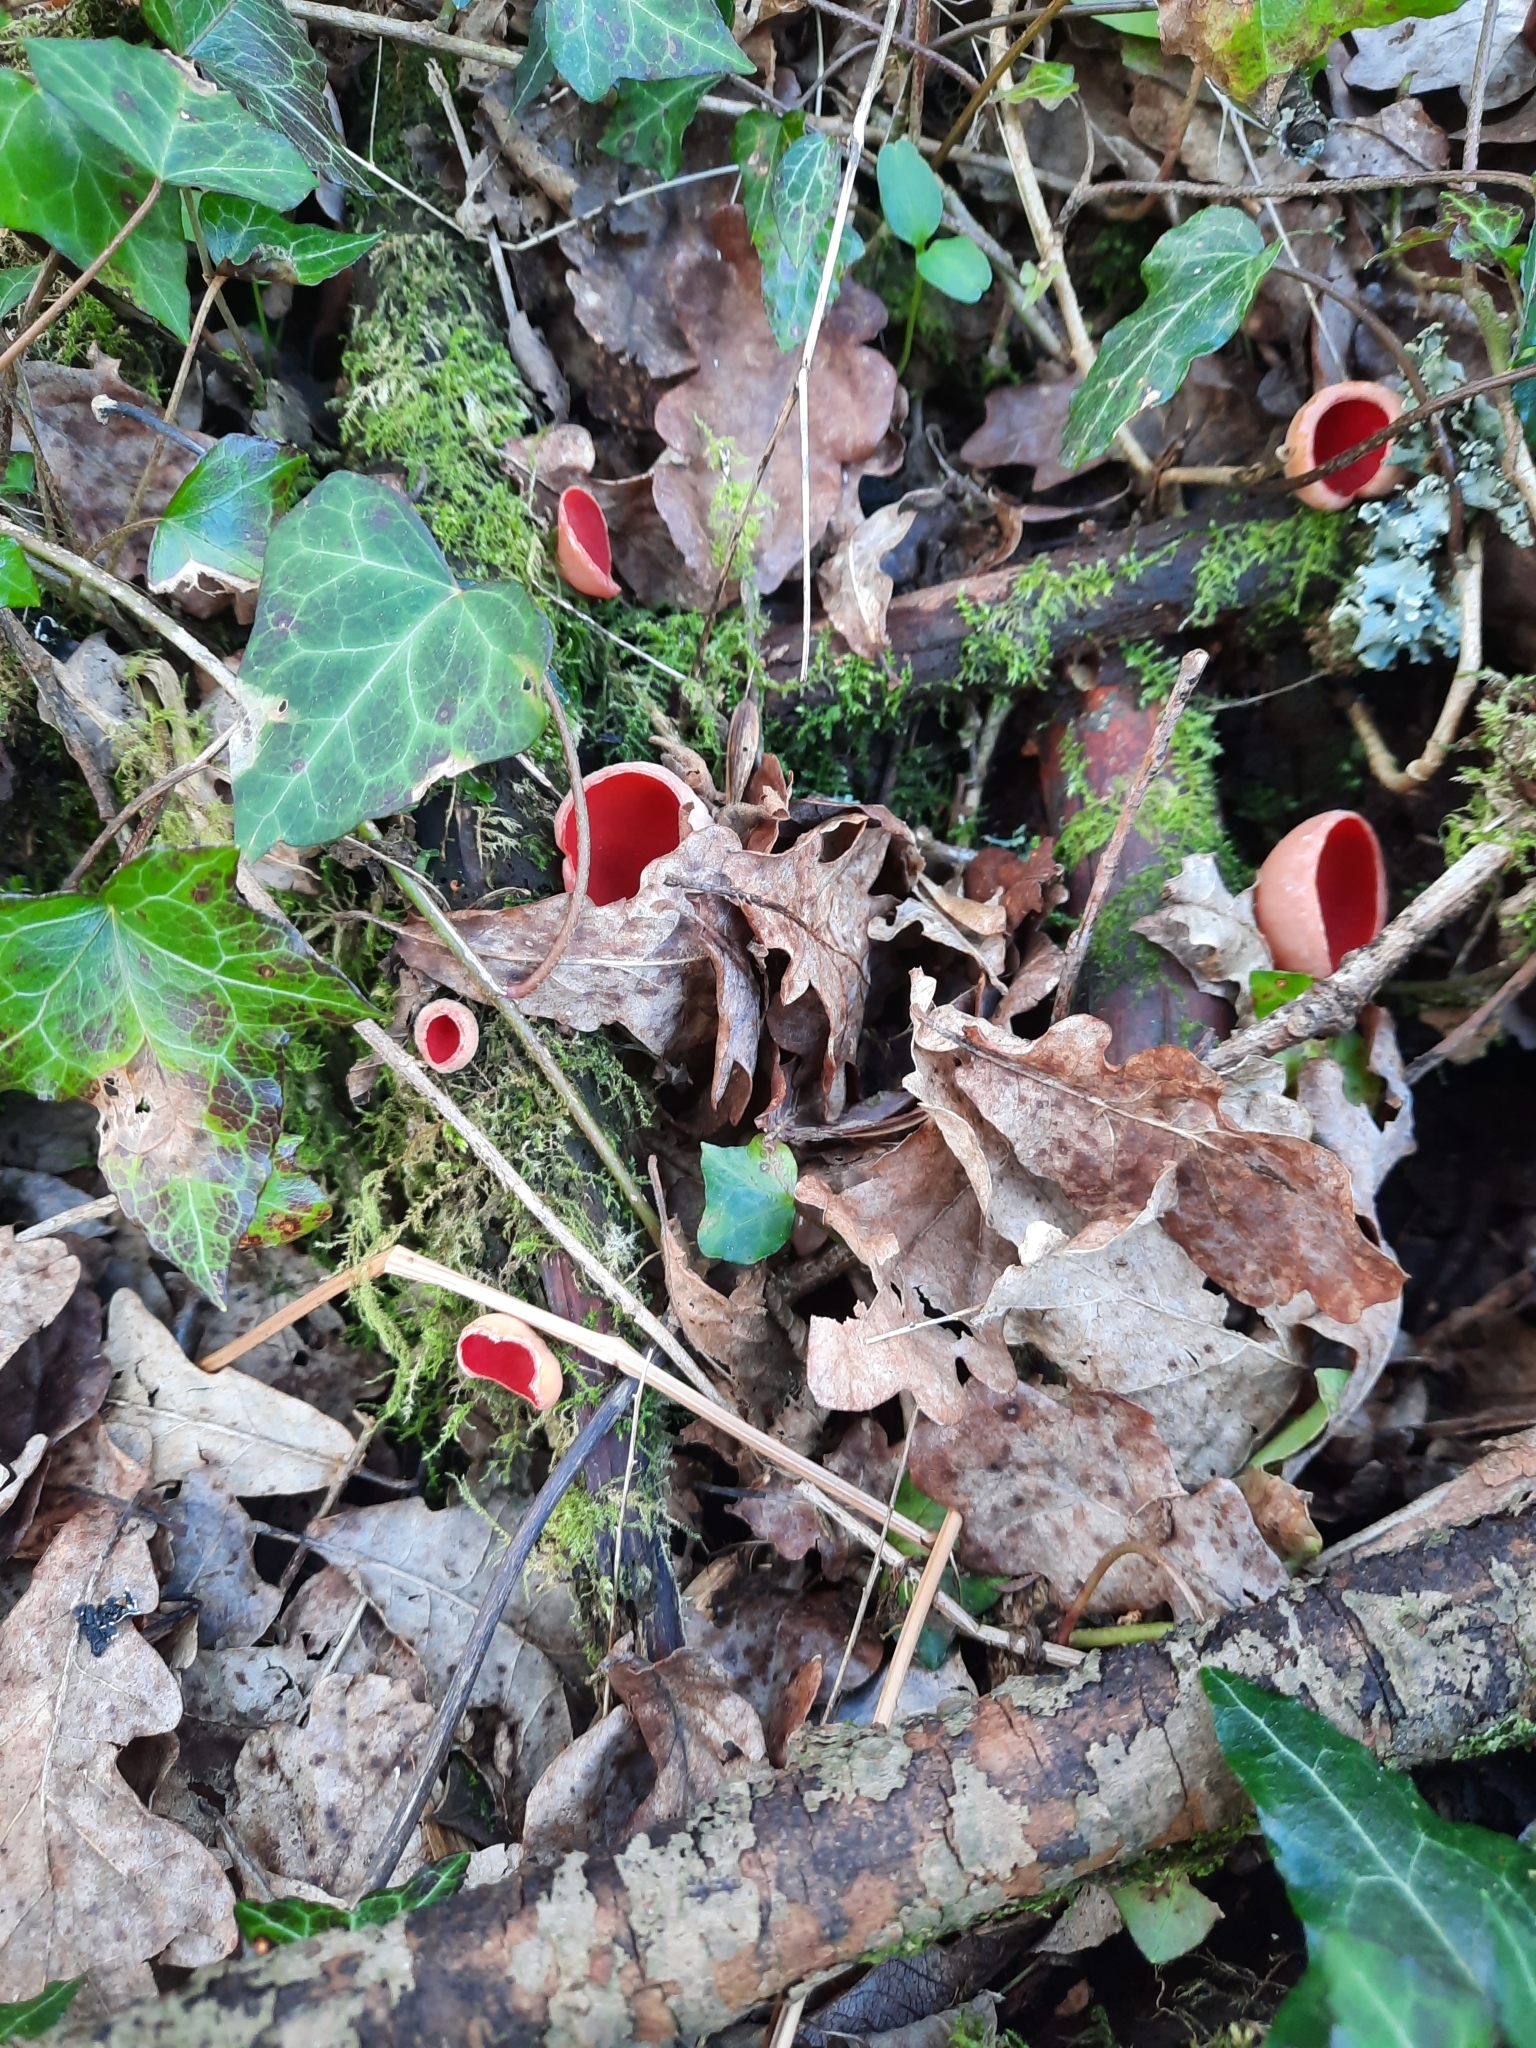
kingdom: Fungi
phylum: Ascomycota
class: Pezizomycetes
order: Pezizales
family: Sarcoscyphaceae
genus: Sarcoscypha
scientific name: Sarcoscypha
